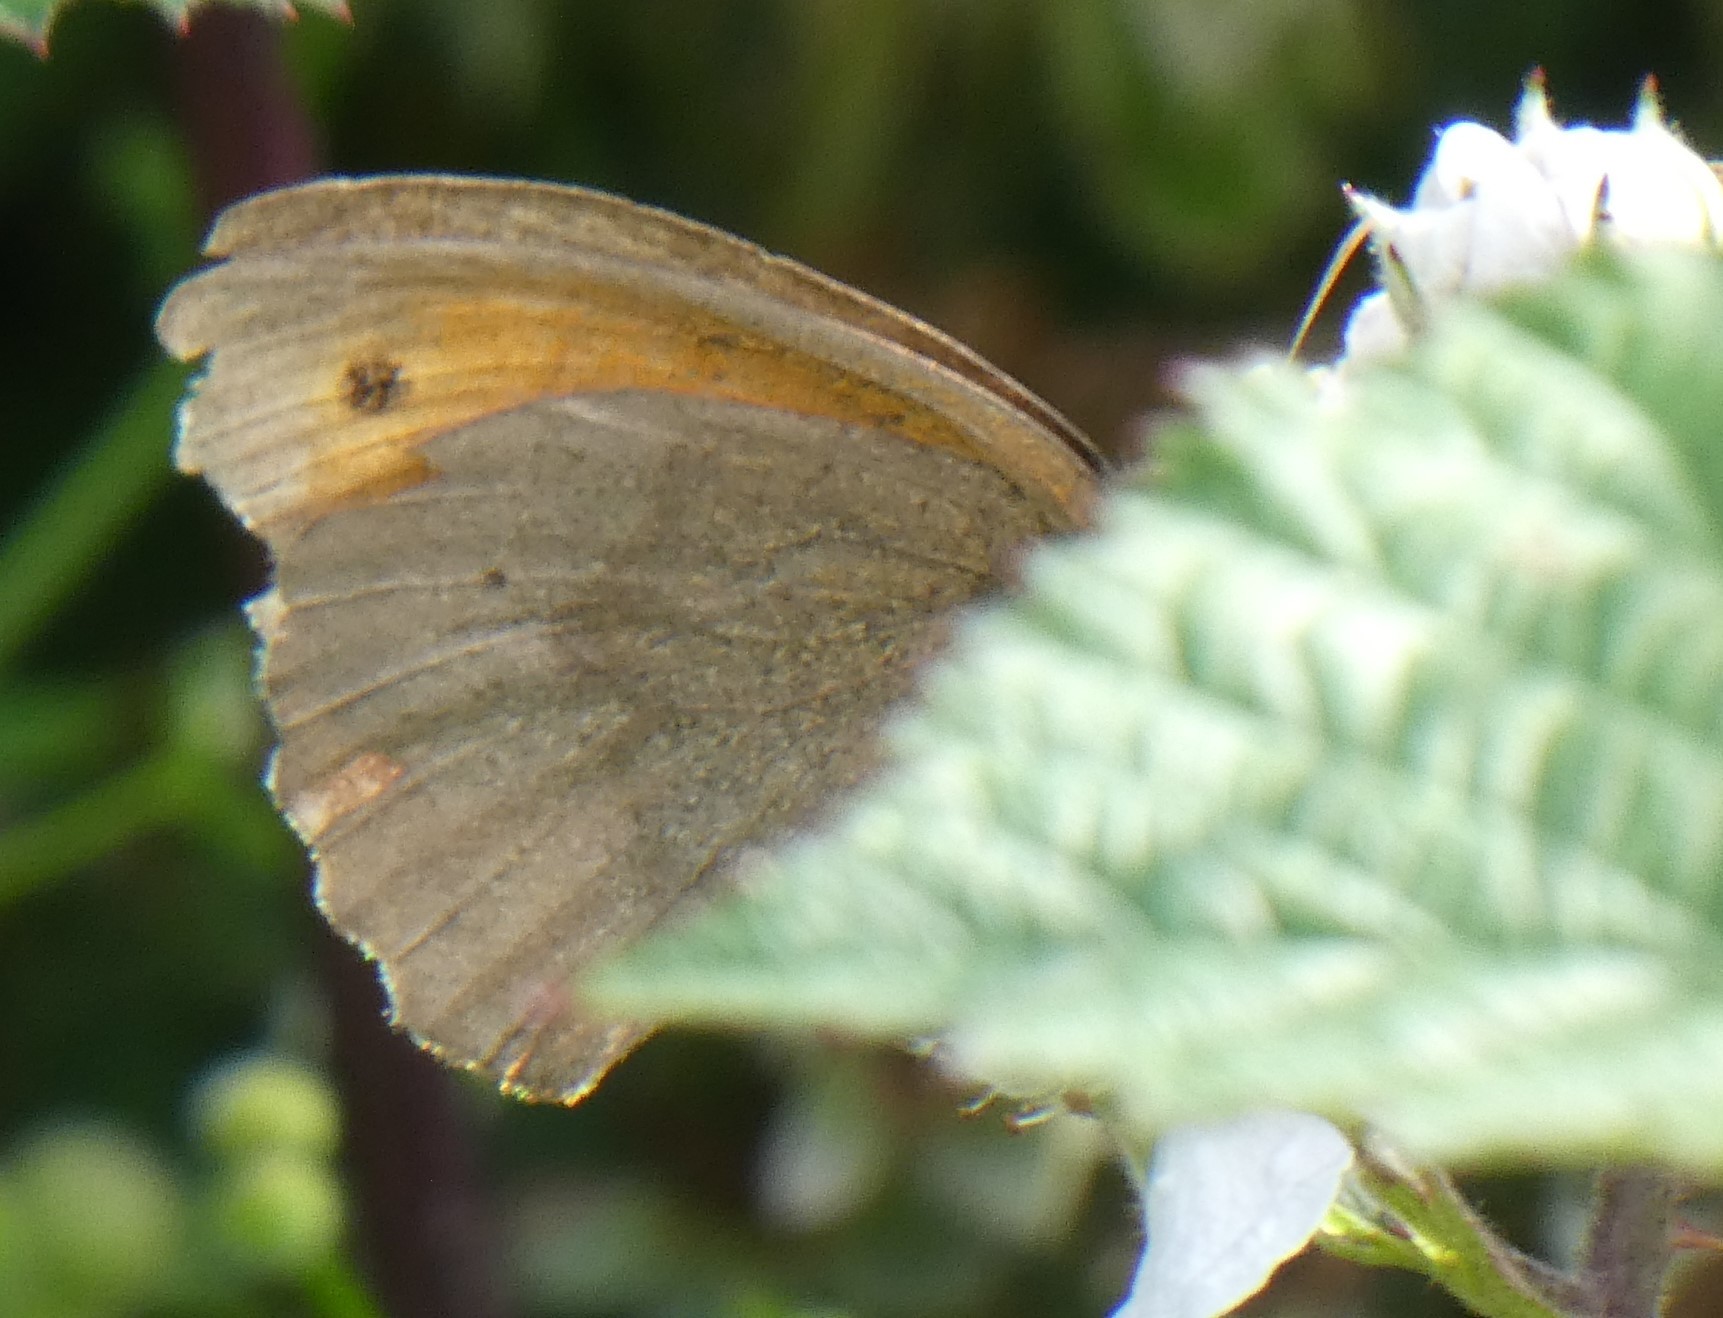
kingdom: Animalia
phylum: Arthropoda
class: Insecta
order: Lepidoptera
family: Nymphalidae
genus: Maniola
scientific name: Maniola jurtina
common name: Meadow brown
